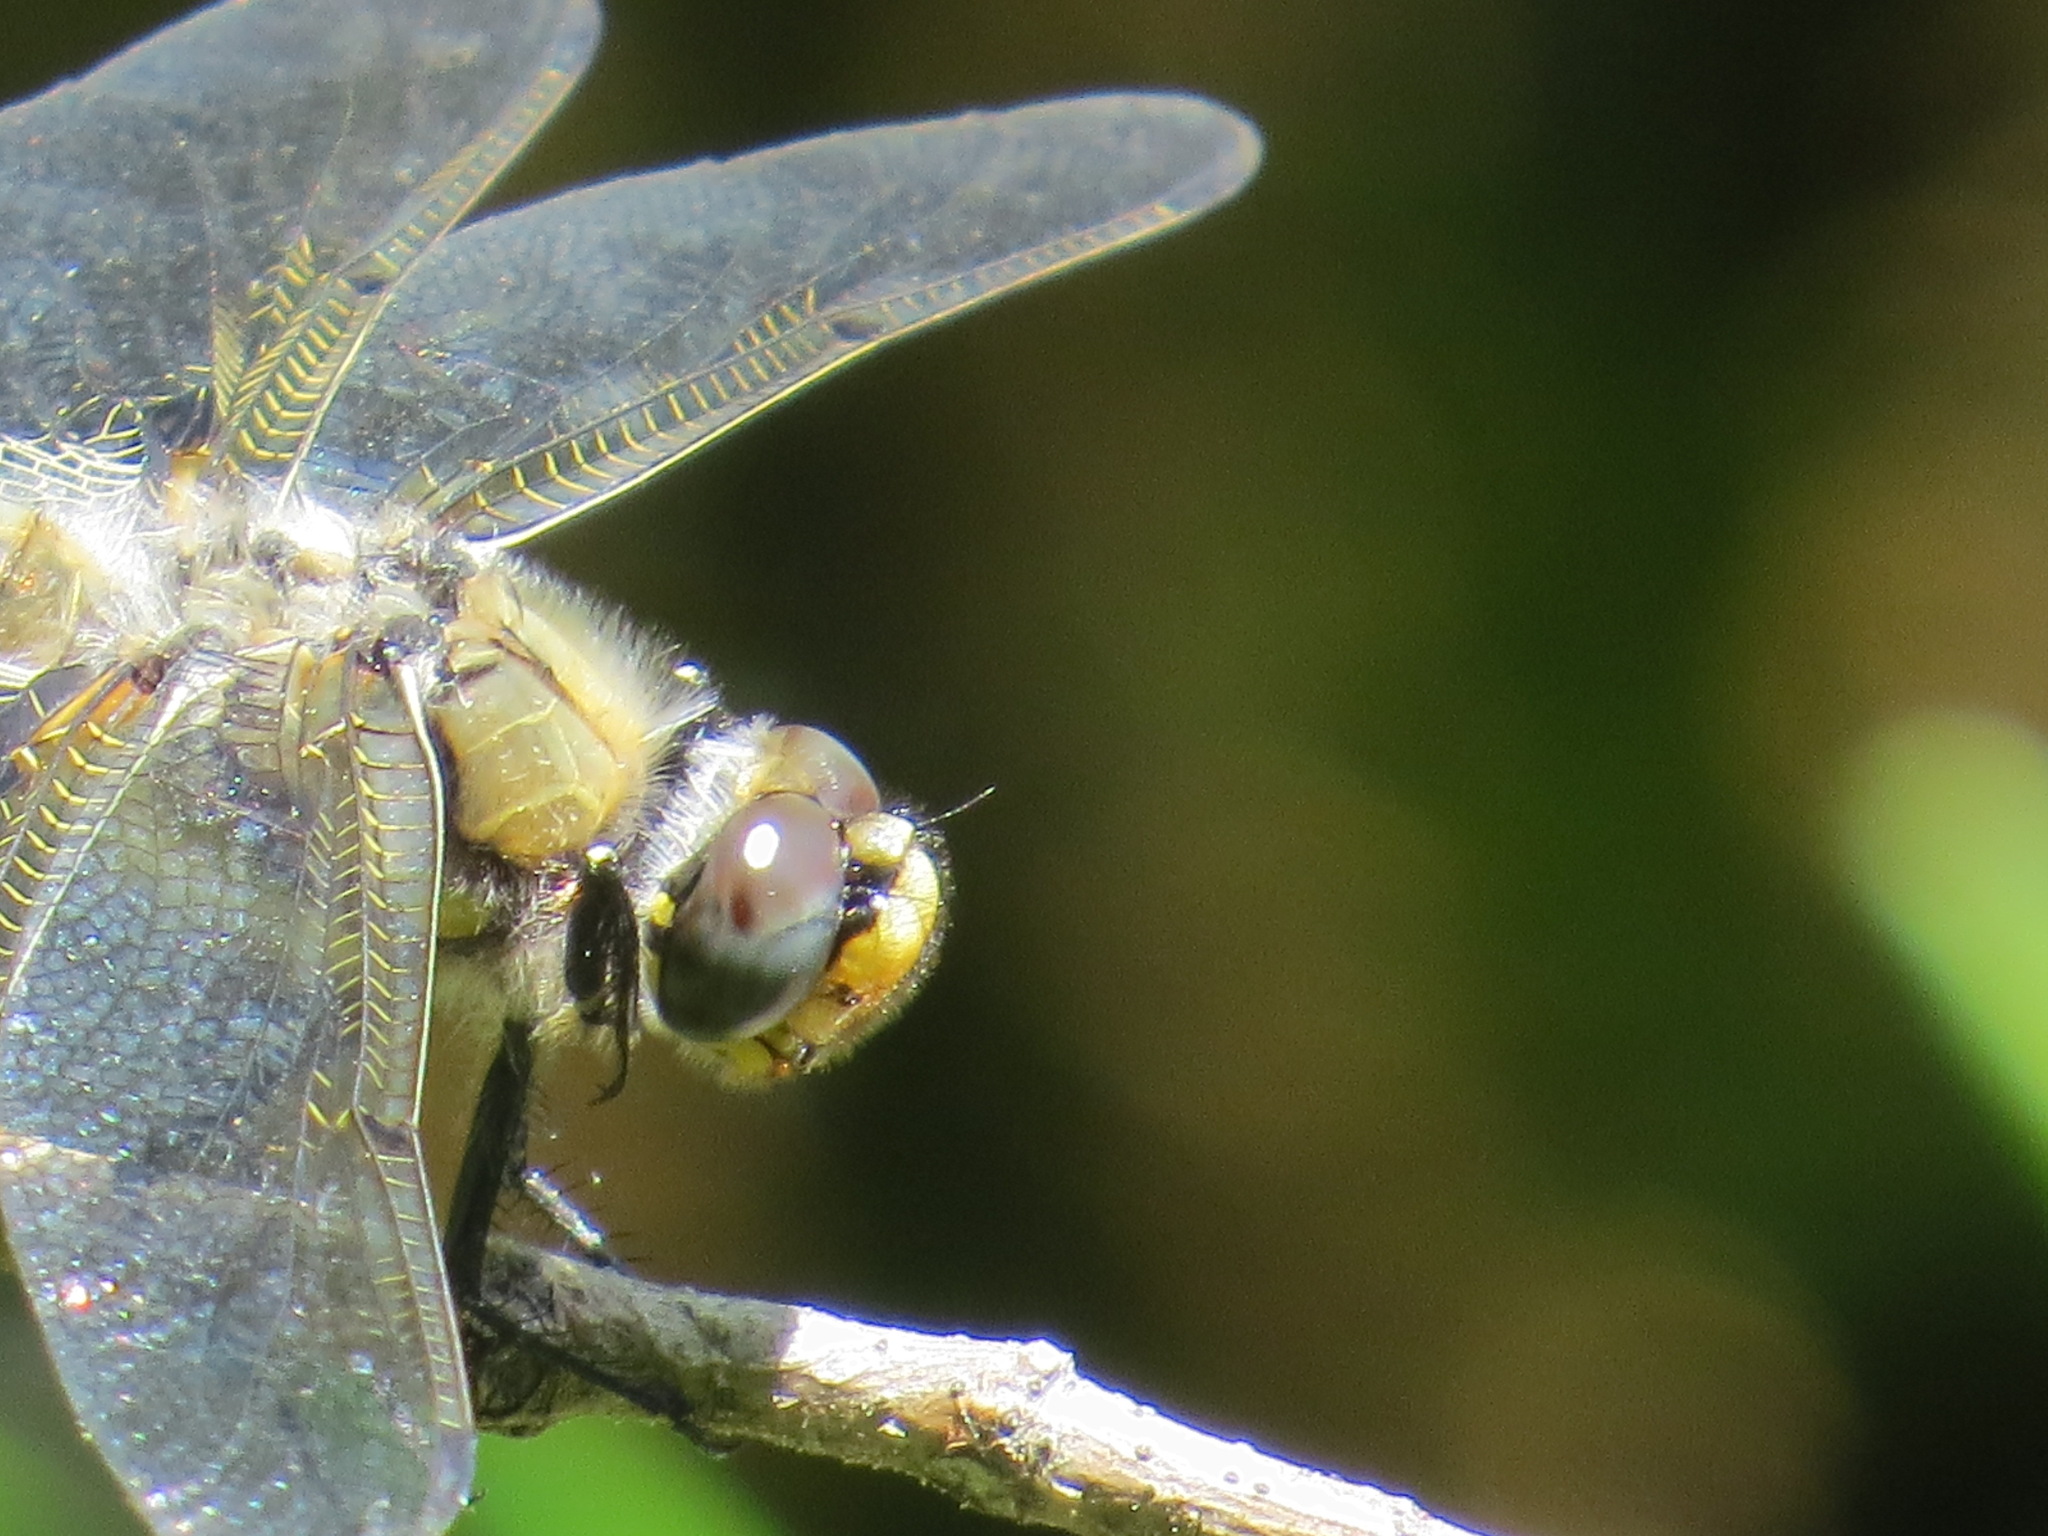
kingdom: Animalia
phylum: Arthropoda
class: Insecta
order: Odonata
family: Libellulidae
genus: Libellula
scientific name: Libellula quadrimaculata
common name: Four-spotted chaser
